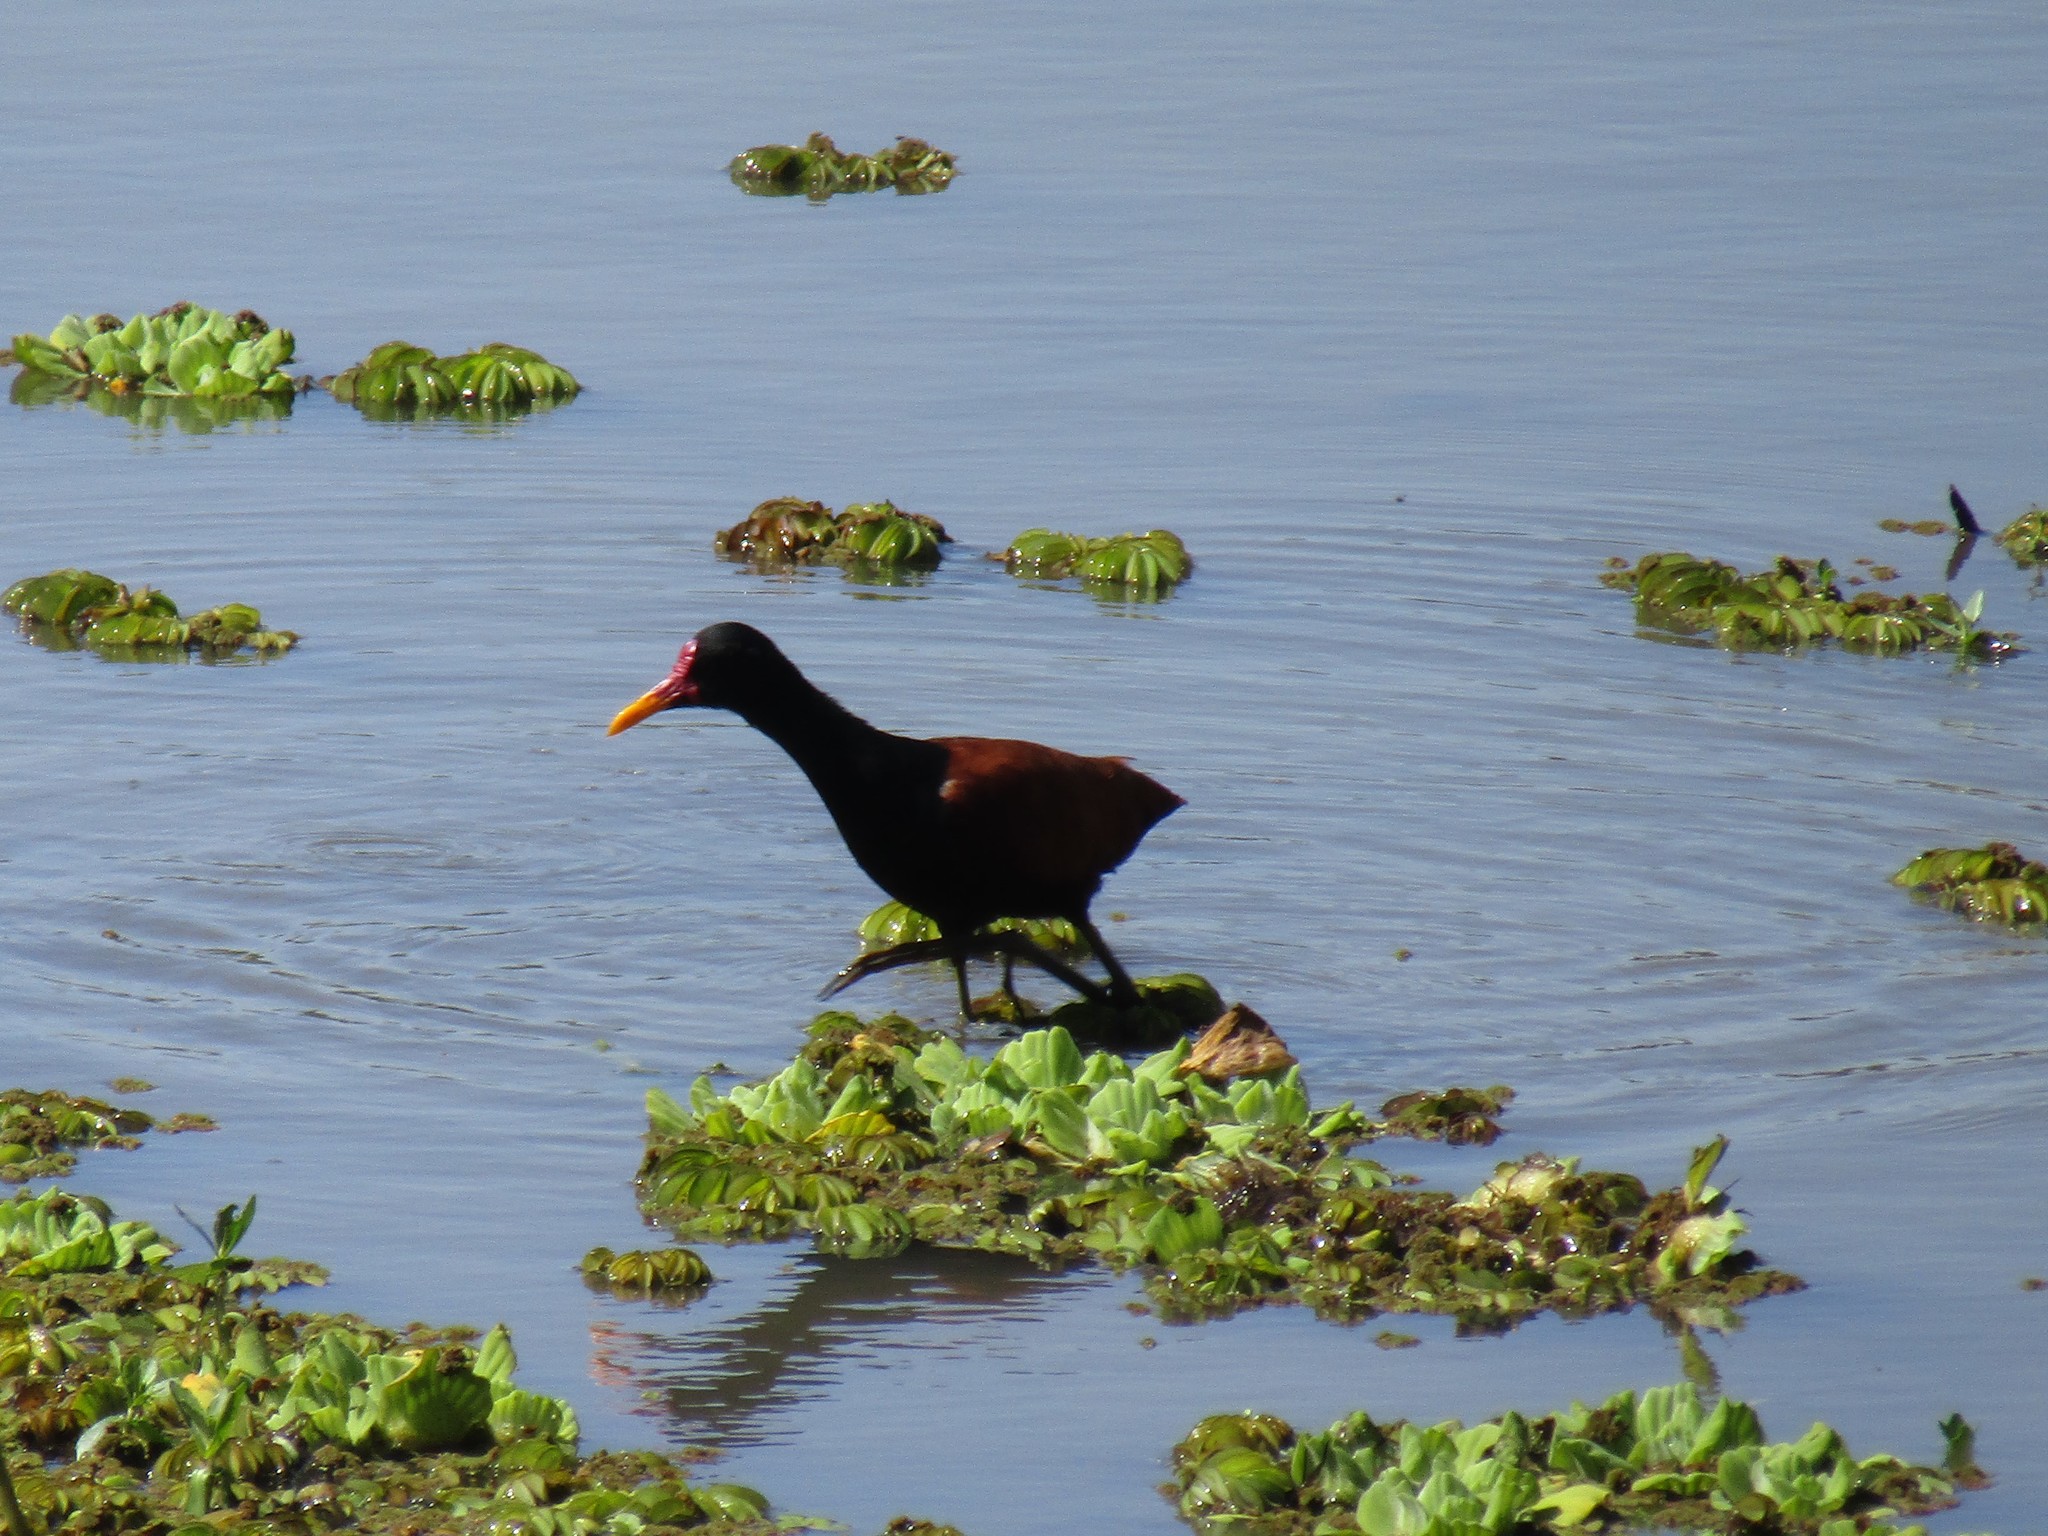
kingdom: Animalia
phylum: Chordata
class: Aves
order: Charadriiformes
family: Jacanidae
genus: Jacana
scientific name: Jacana jacana
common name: Wattled jacana
